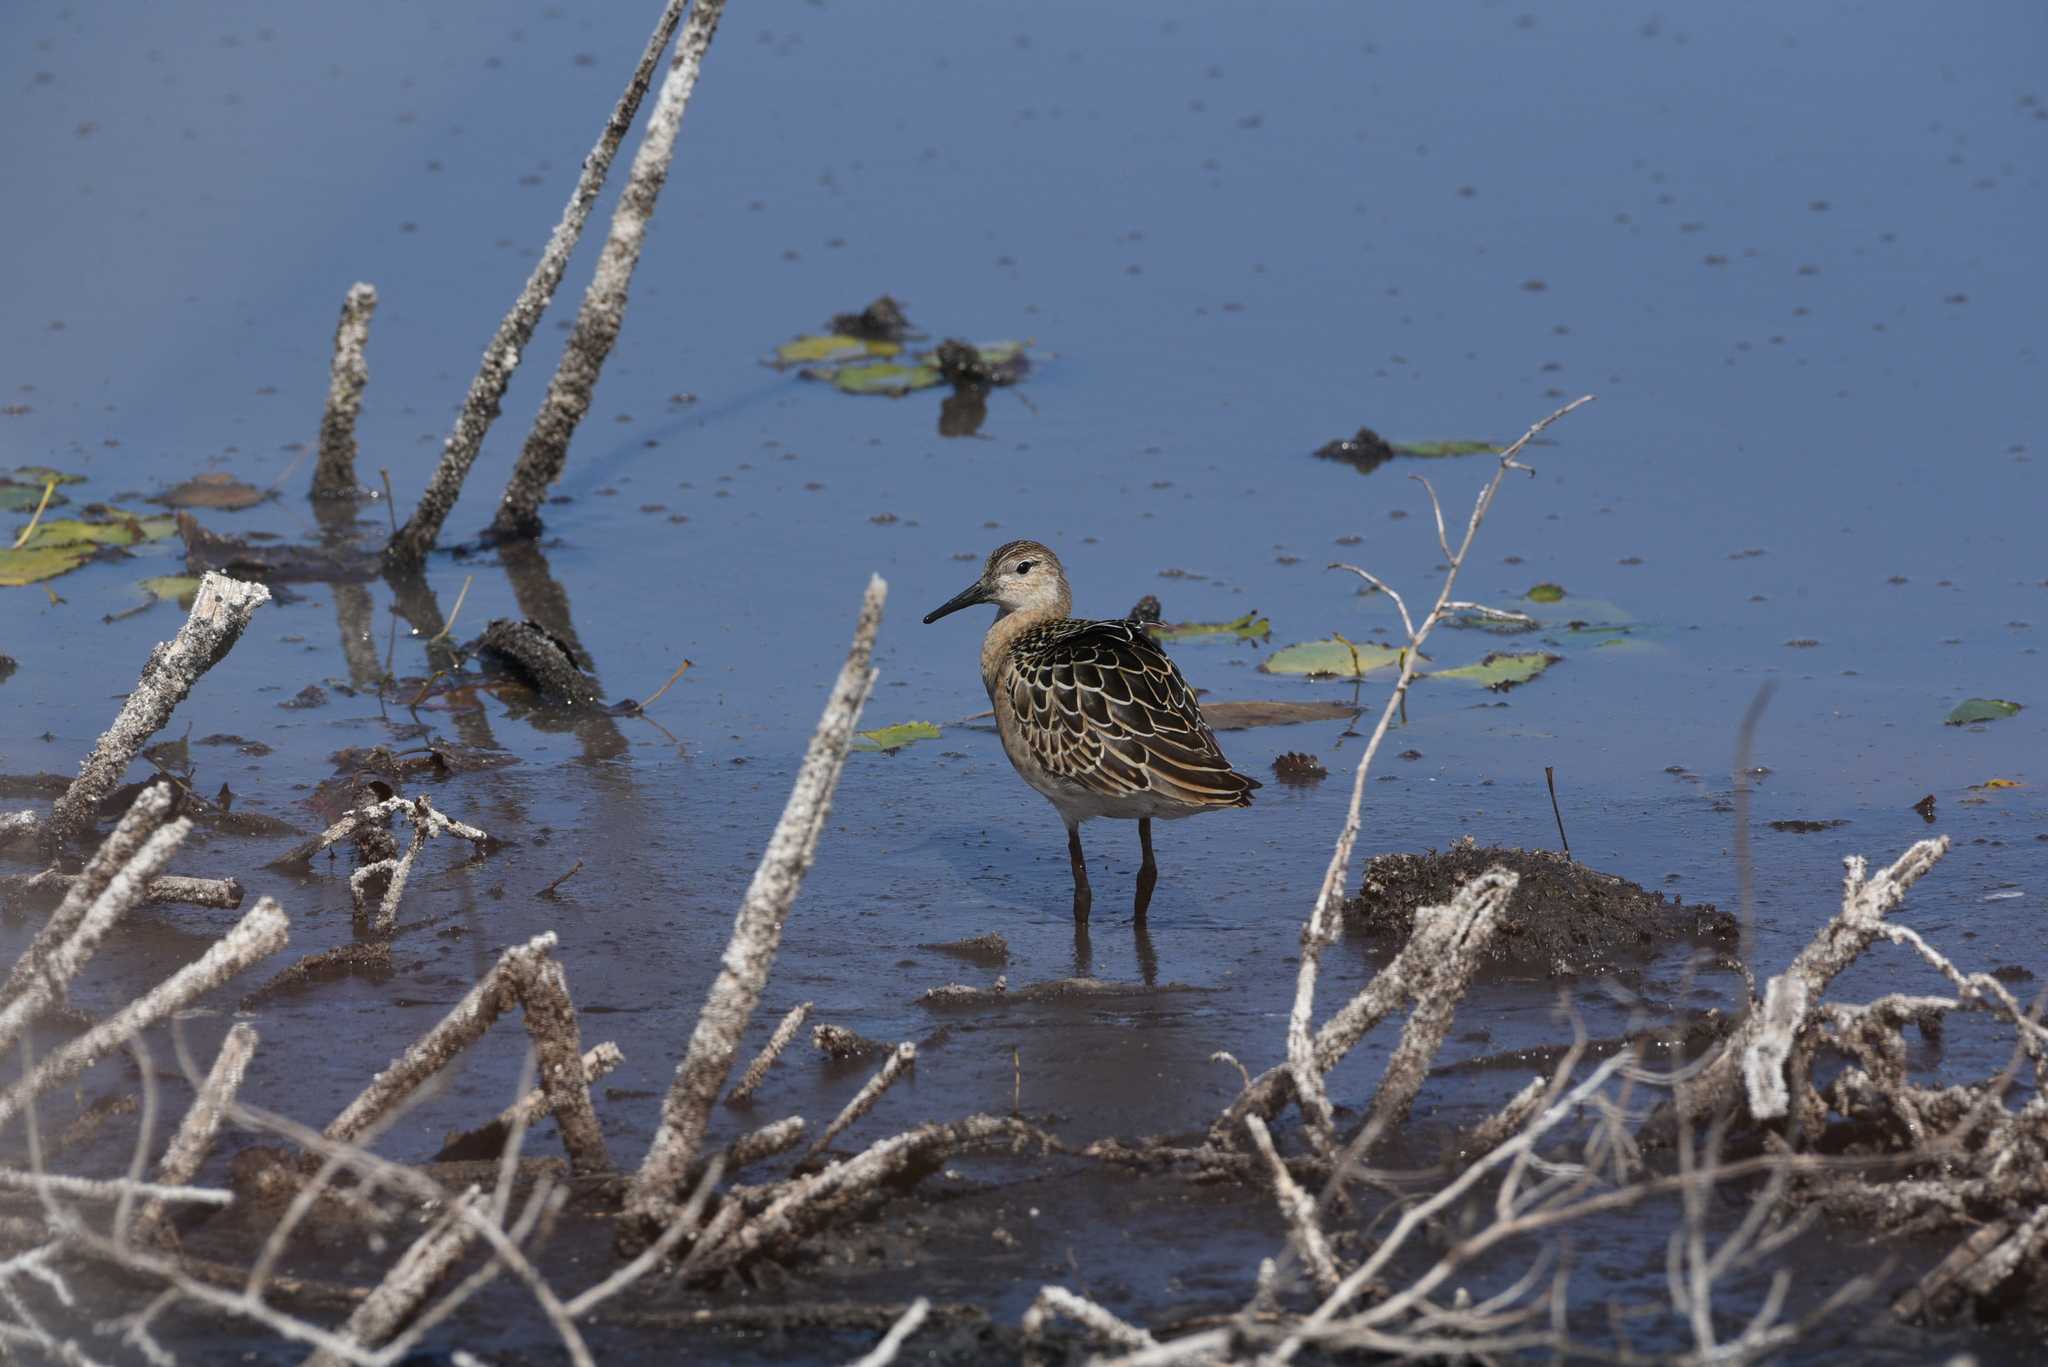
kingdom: Animalia
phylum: Chordata
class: Aves
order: Charadriiformes
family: Scolopacidae
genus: Calidris
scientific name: Calidris pugnax
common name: Ruff
